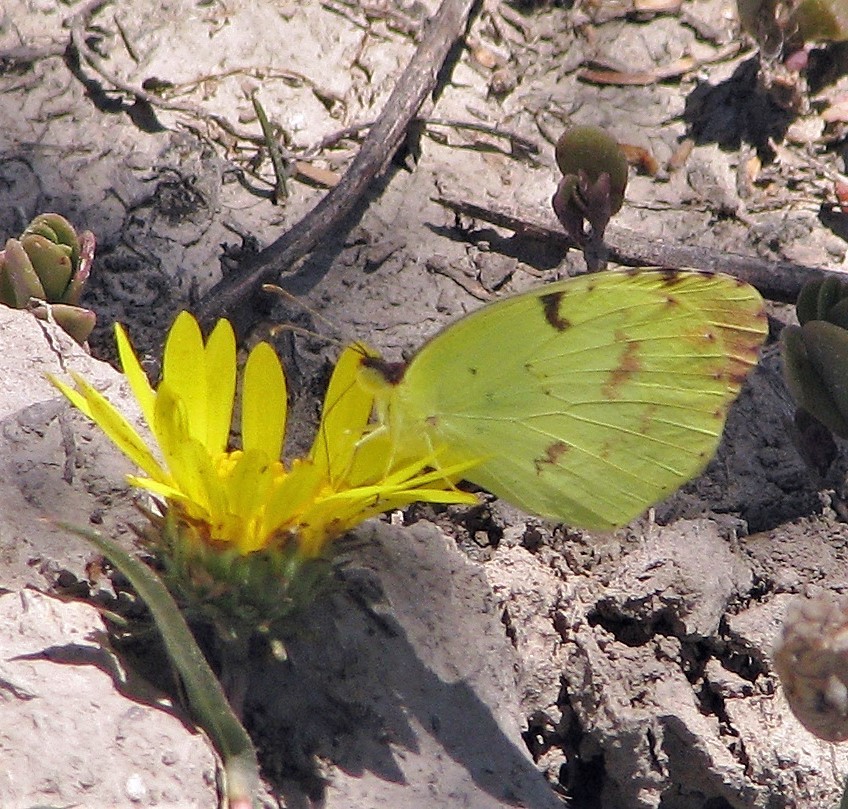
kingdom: Animalia
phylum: Arthropoda
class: Insecta
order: Lepidoptera
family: Pieridae
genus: Teriocolias
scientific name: Teriocolias
